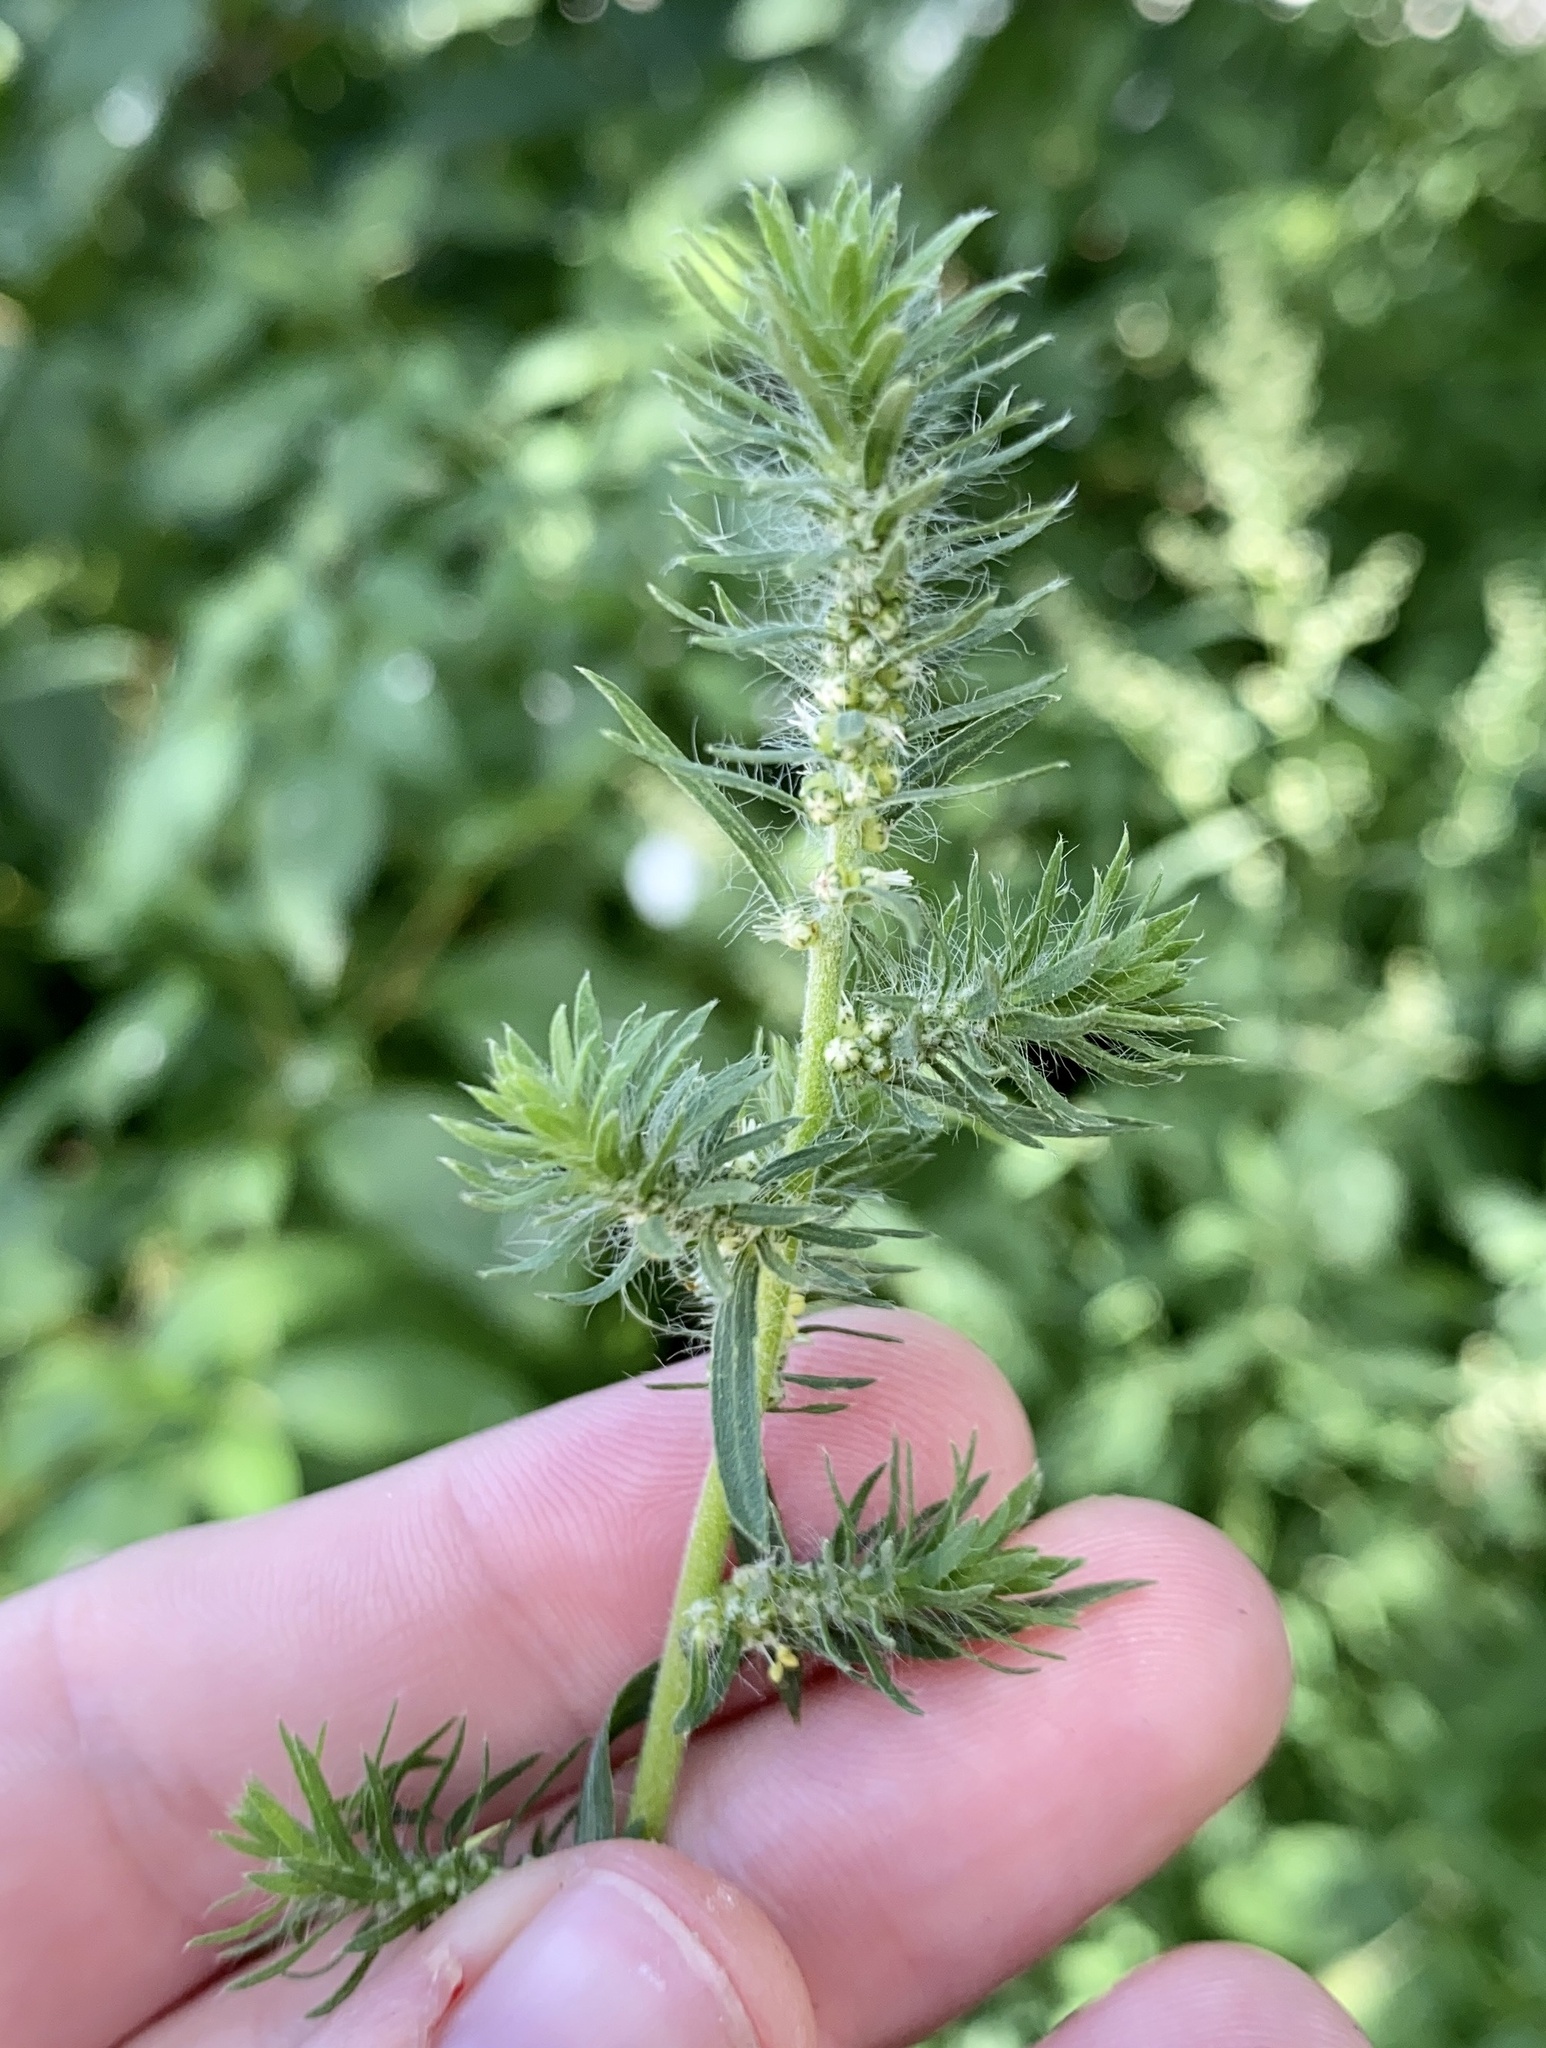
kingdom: Plantae
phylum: Tracheophyta
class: Magnoliopsida
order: Caryophyllales
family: Amaranthaceae
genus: Bassia
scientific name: Bassia scoparia
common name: Belvedere
